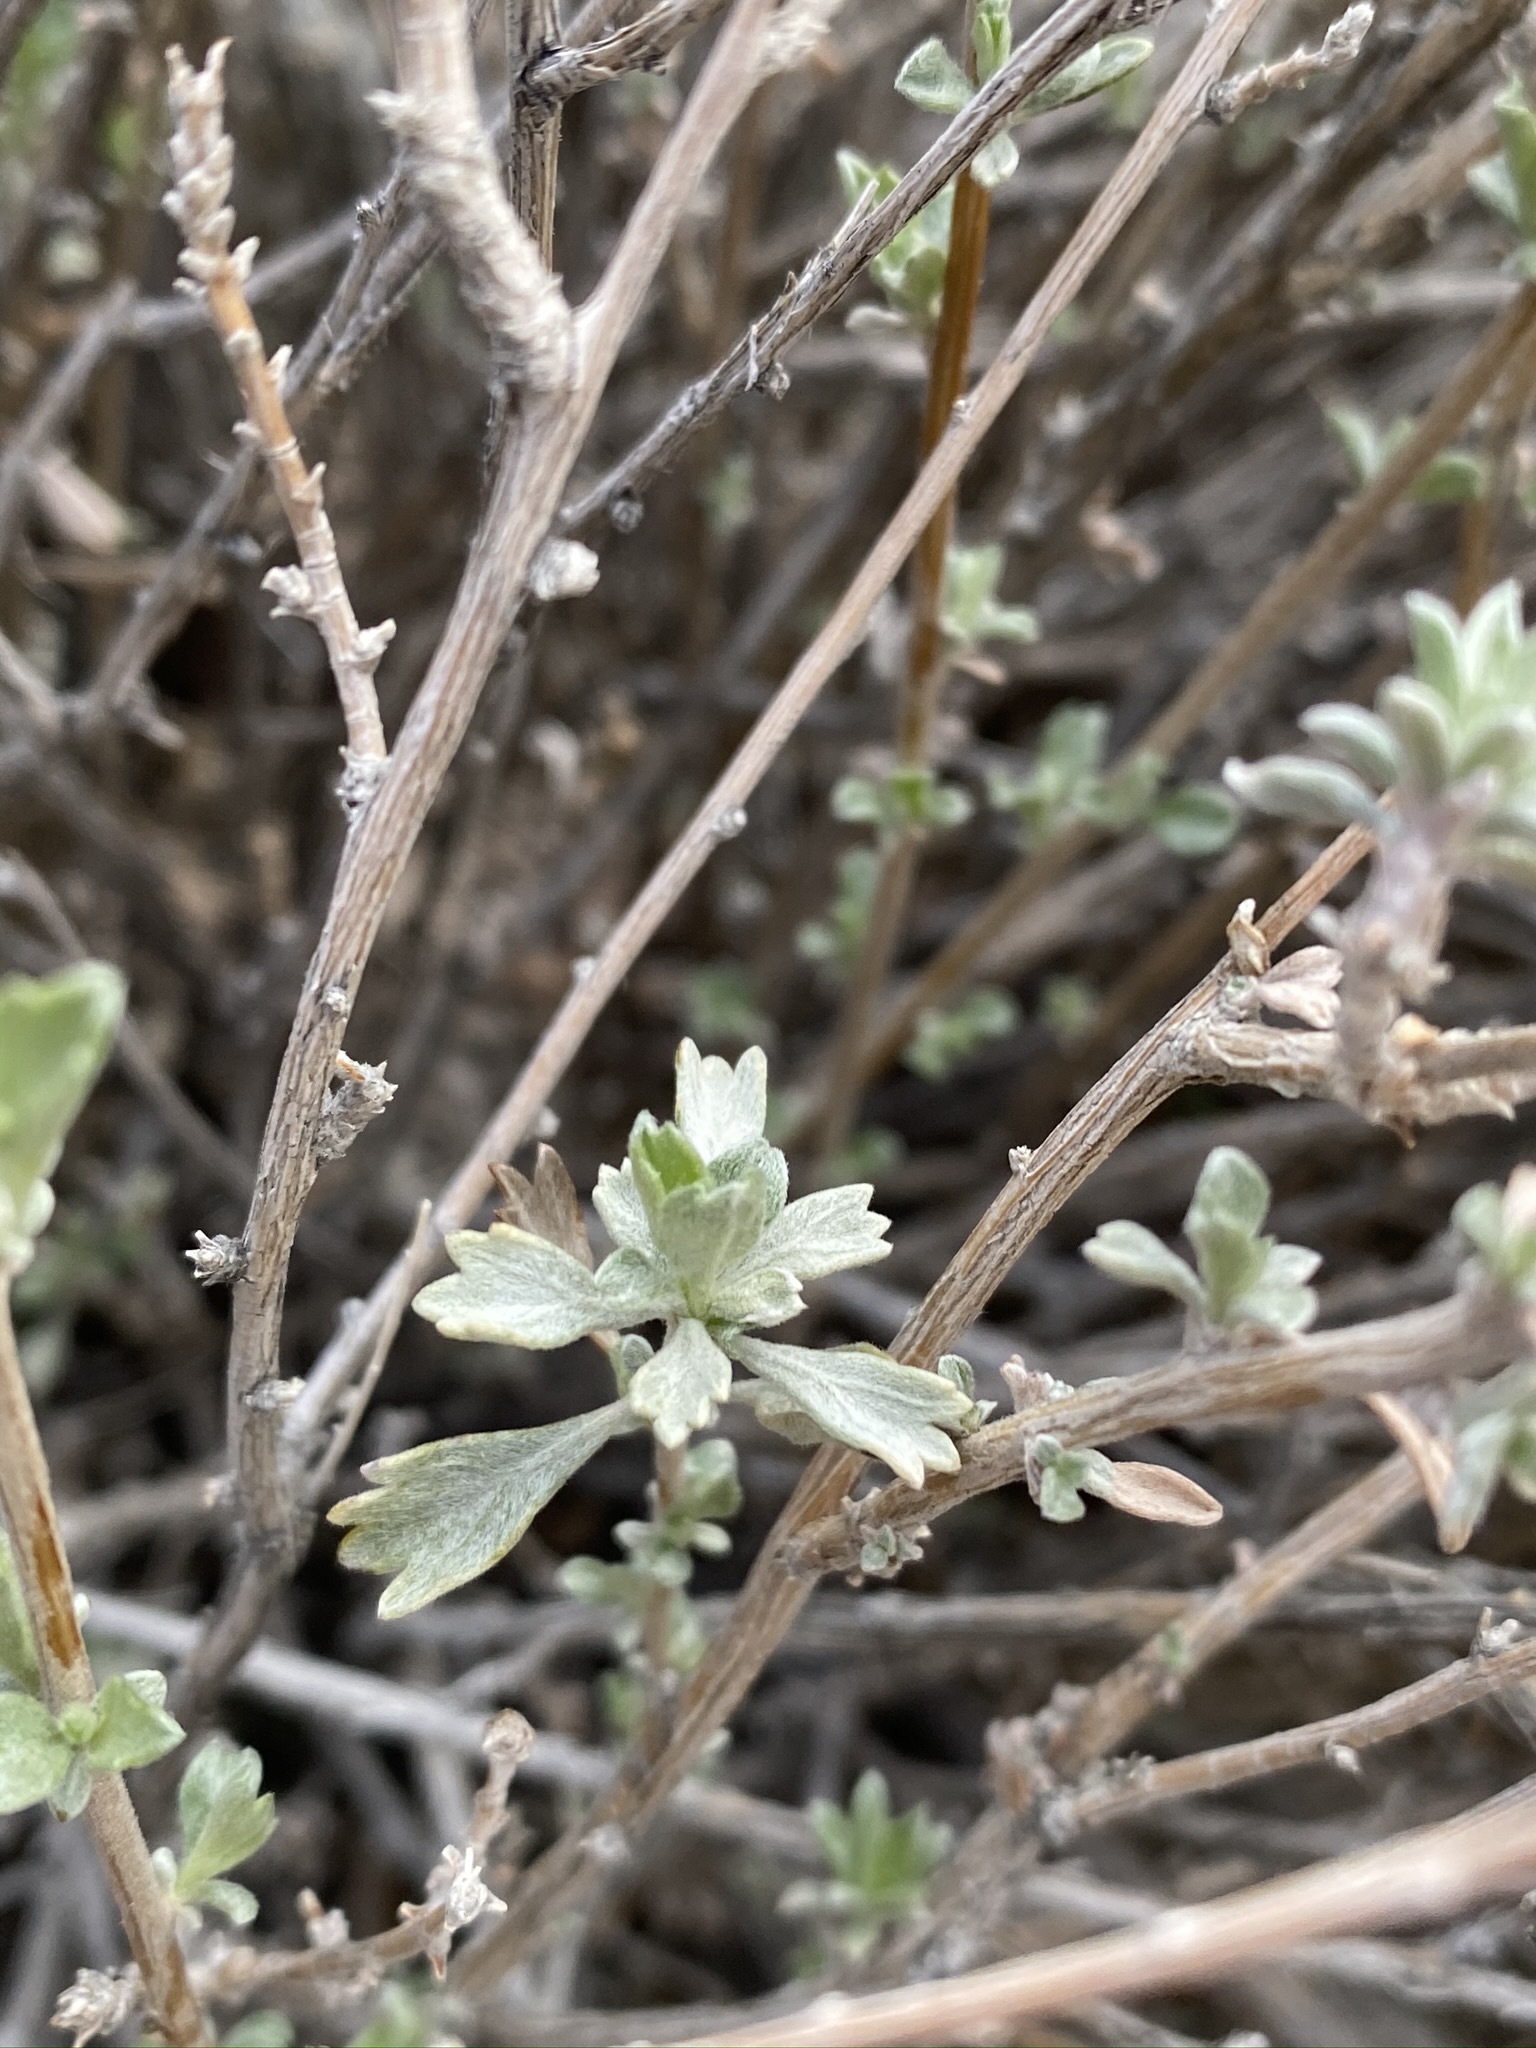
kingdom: Plantae
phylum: Tracheophyta
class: Magnoliopsida
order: Asterales
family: Asteraceae
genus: Artemisia
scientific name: Artemisia bigelovii
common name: Bigelow sagebrush
